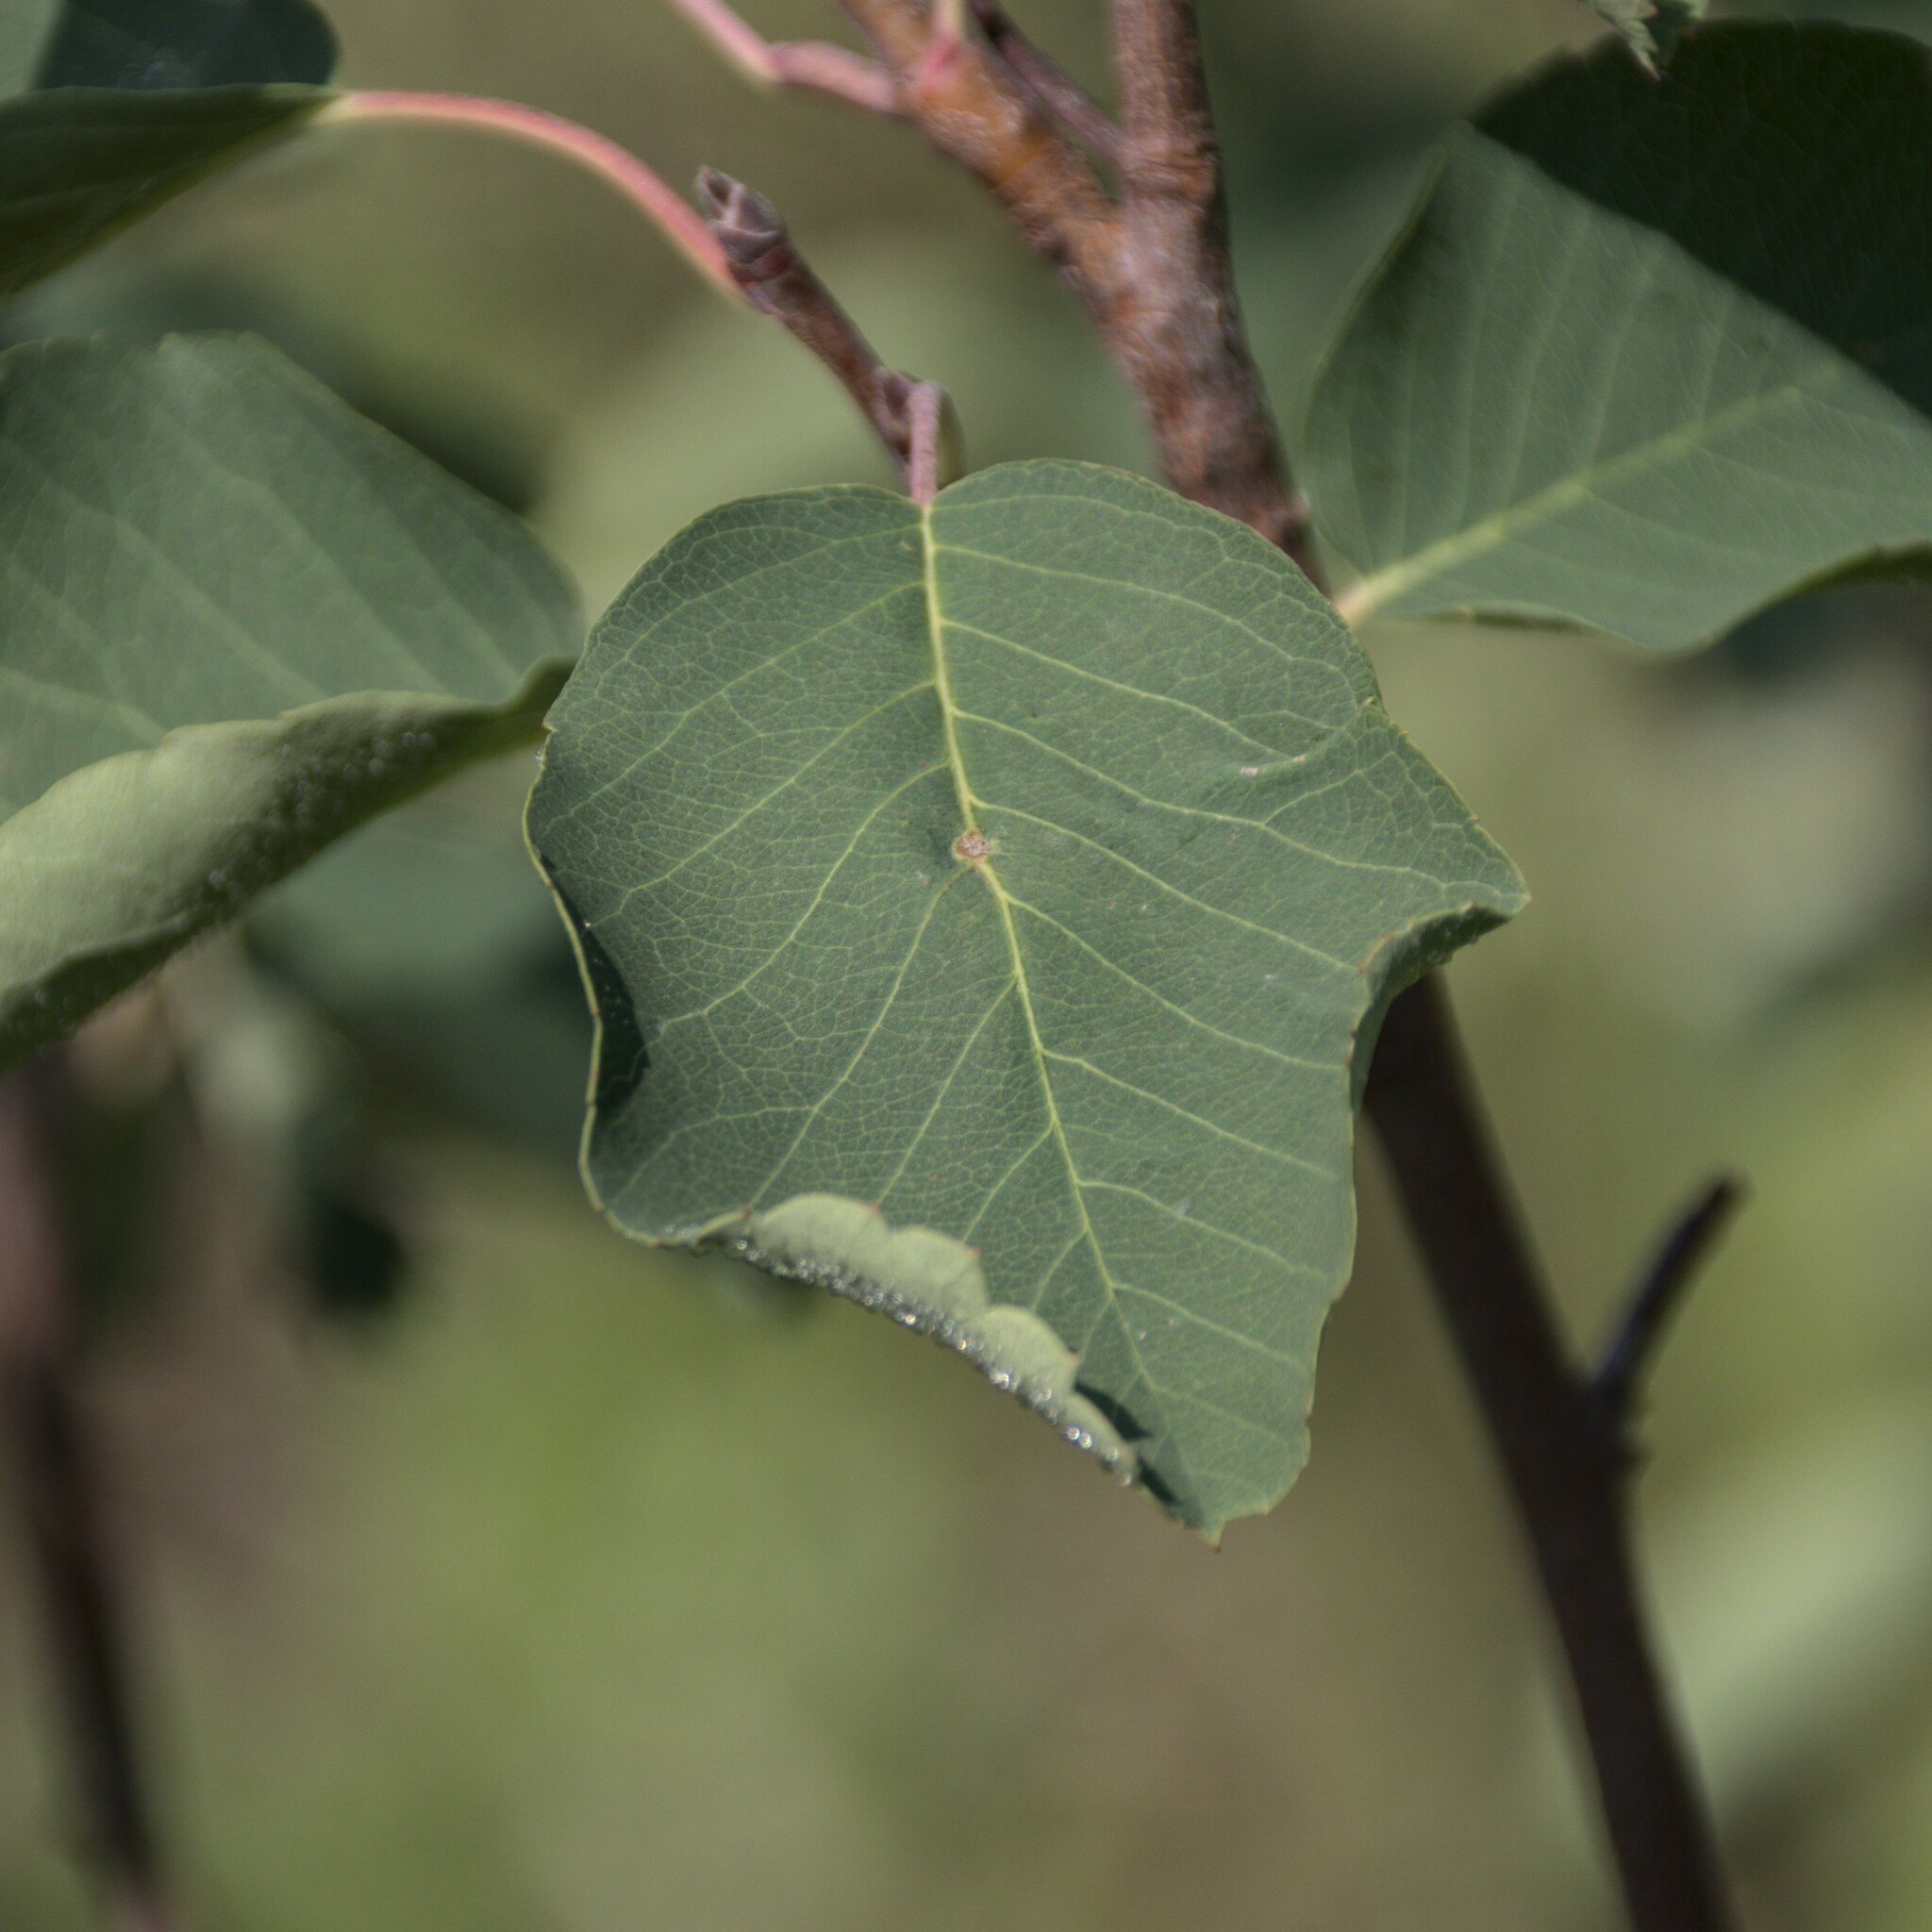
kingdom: Plantae
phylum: Tracheophyta
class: Magnoliopsida
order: Rosales
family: Rosaceae
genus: Amelanchier
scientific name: Amelanchier alnifolia
